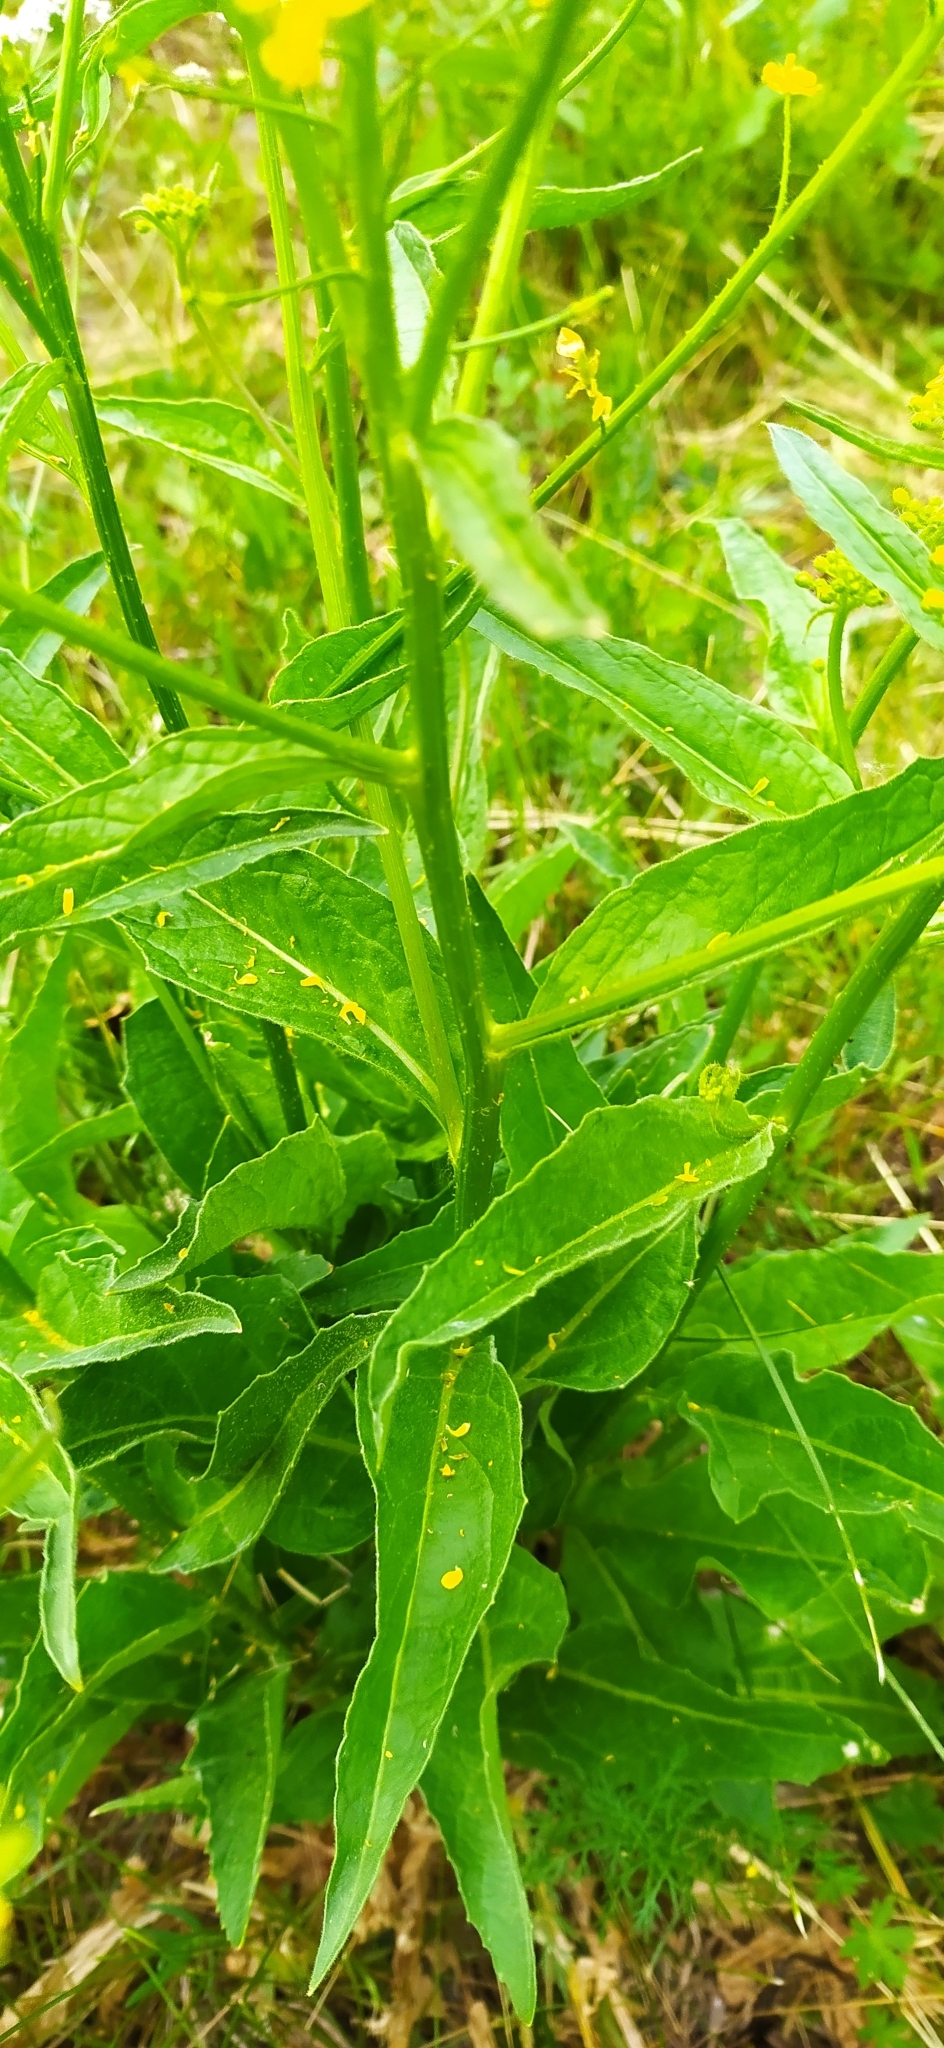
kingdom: Plantae
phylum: Tracheophyta
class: Magnoliopsida
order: Brassicales
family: Brassicaceae
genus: Bunias
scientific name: Bunias orientalis
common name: Warty-cabbage
